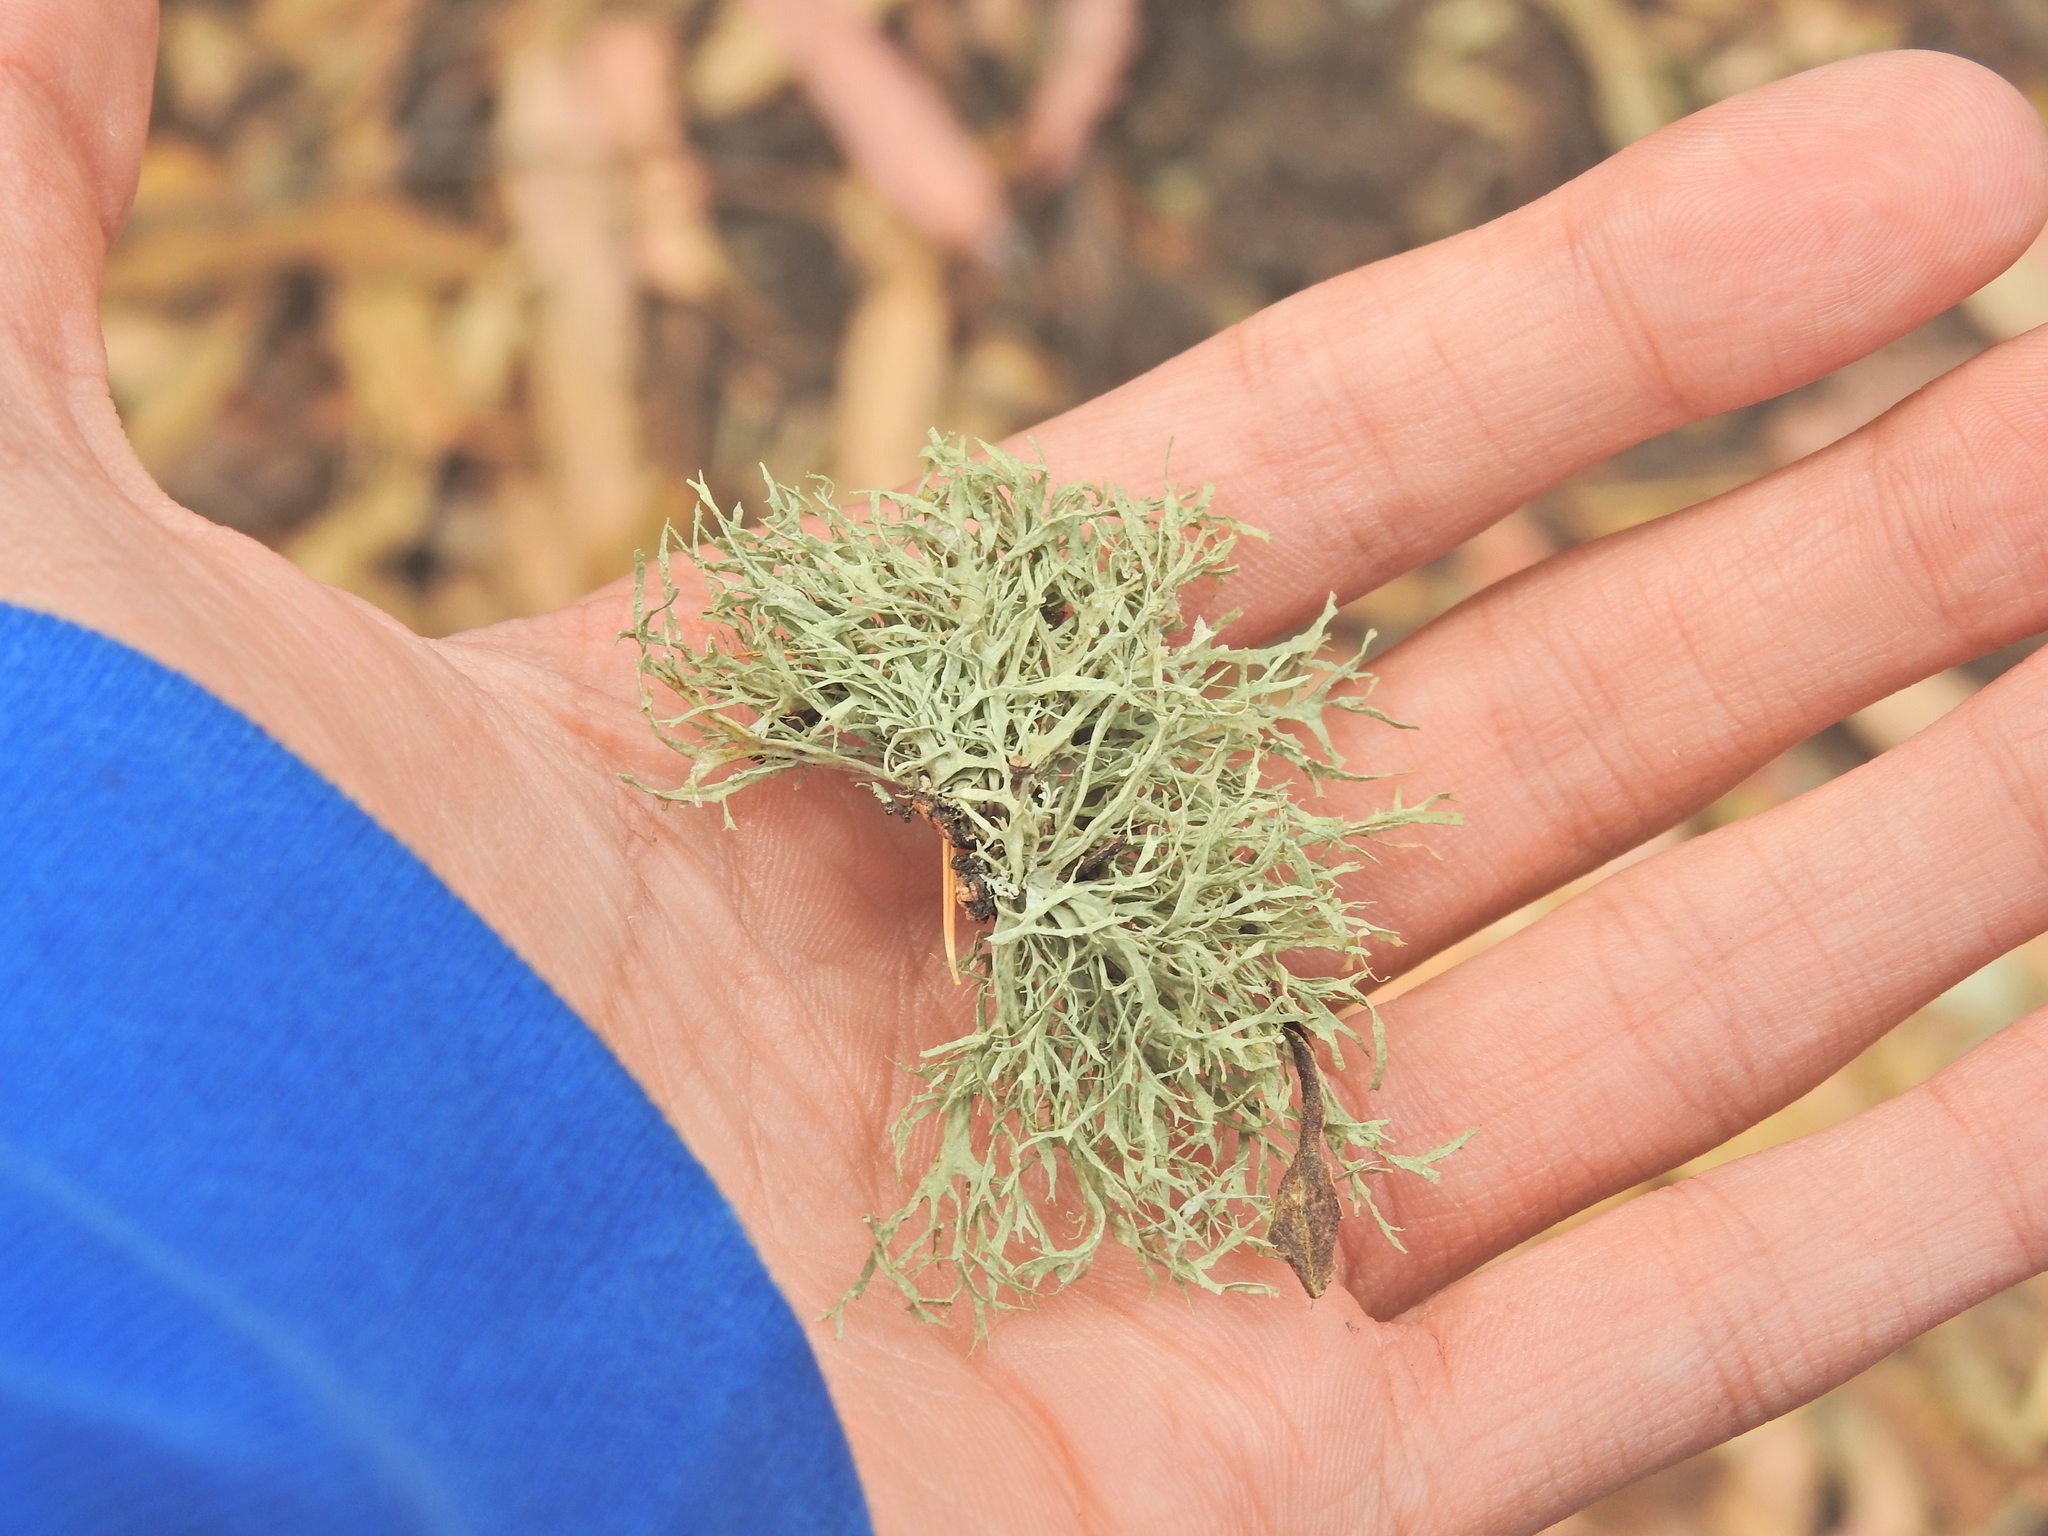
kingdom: Fungi
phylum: Ascomycota
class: Lecanoromycetes
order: Lecanorales
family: Ramalinaceae
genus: Ramalina
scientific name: Ramalina farinacea
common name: Farinose cartilage lichen
